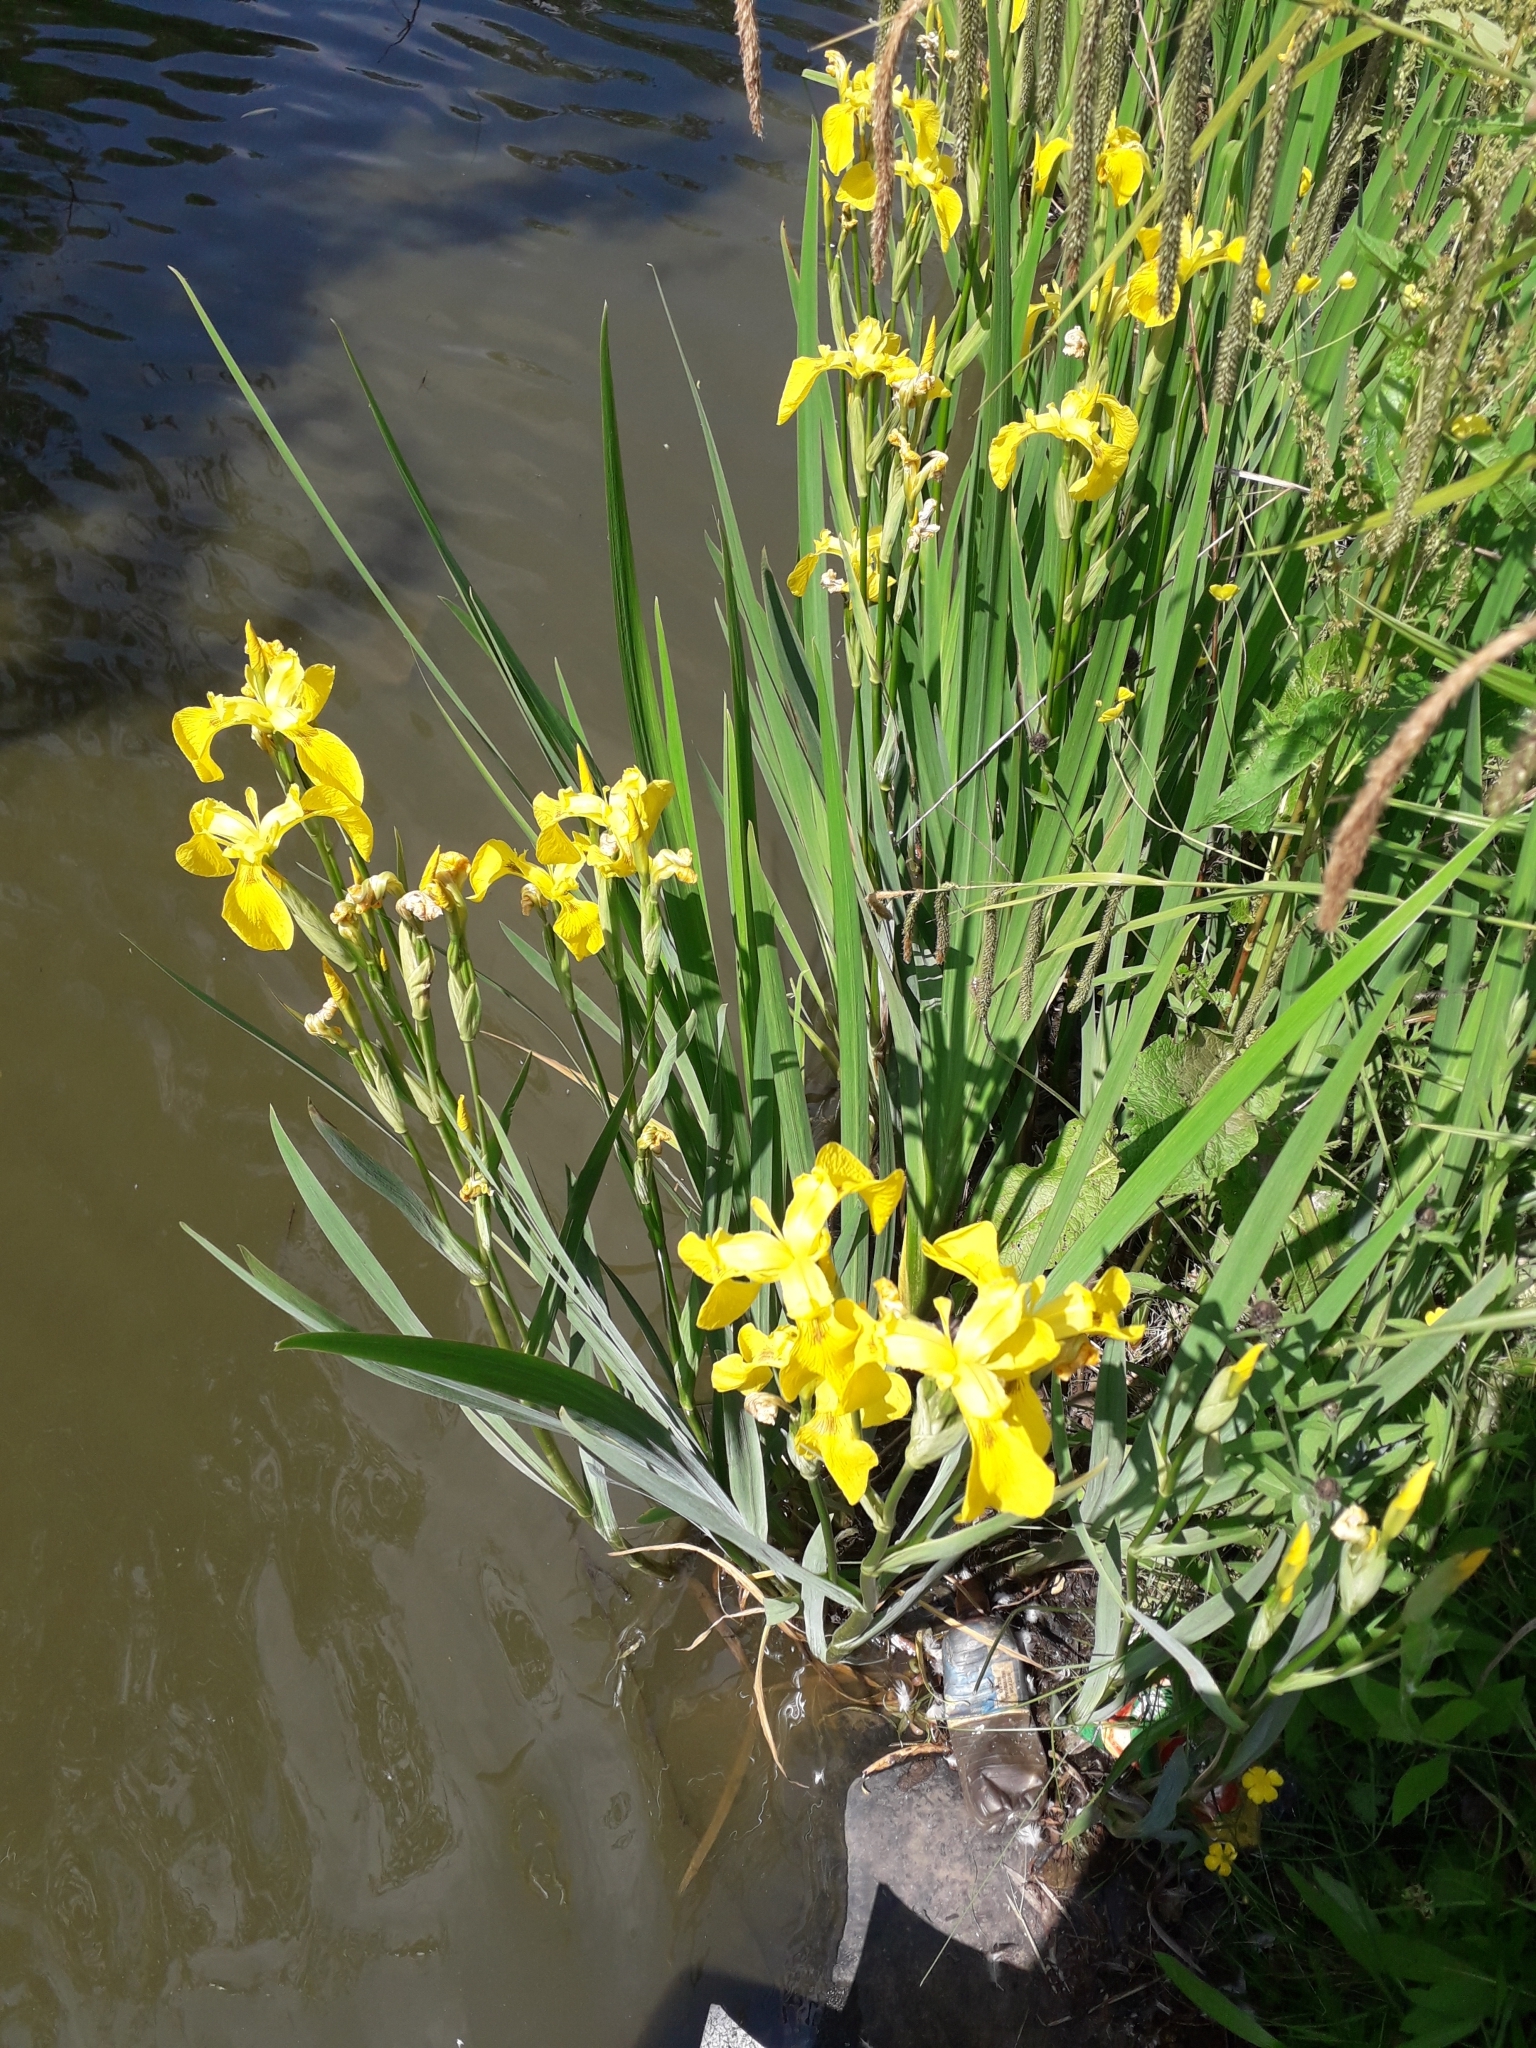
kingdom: Plantae
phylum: Tracheophyta
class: Liliopsida
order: Asparagales
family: Iridaceae
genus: Iris
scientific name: Iris pseudacorus
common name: Yellow flag
